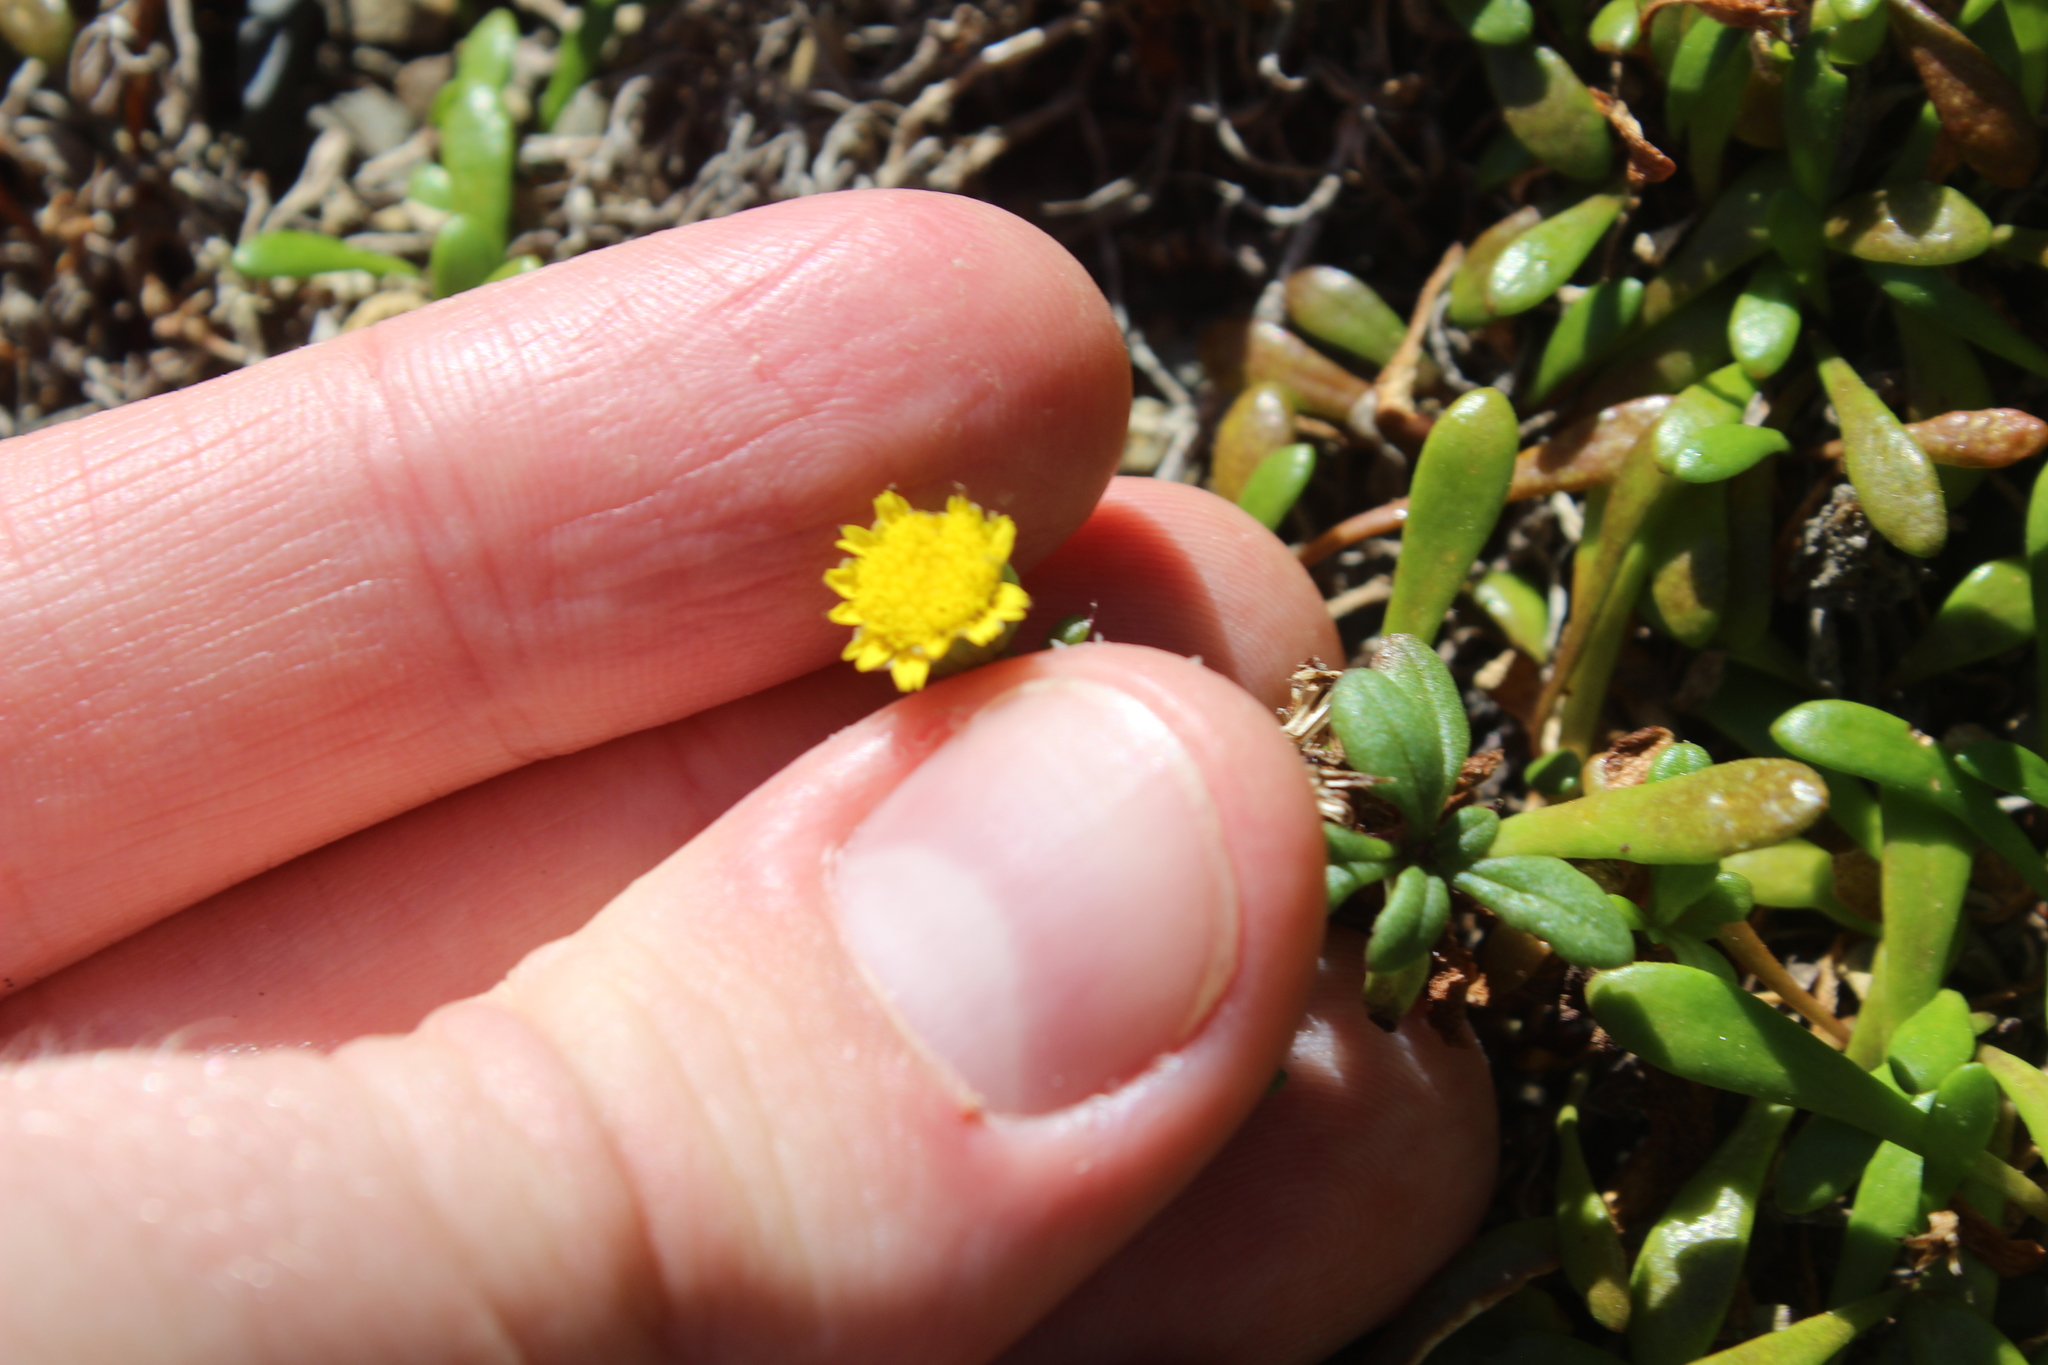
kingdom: Plantae
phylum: Tracheophyta
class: Magnoliopsida
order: Asterales
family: Asteraceae
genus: Senecio
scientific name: Senecio lautus
